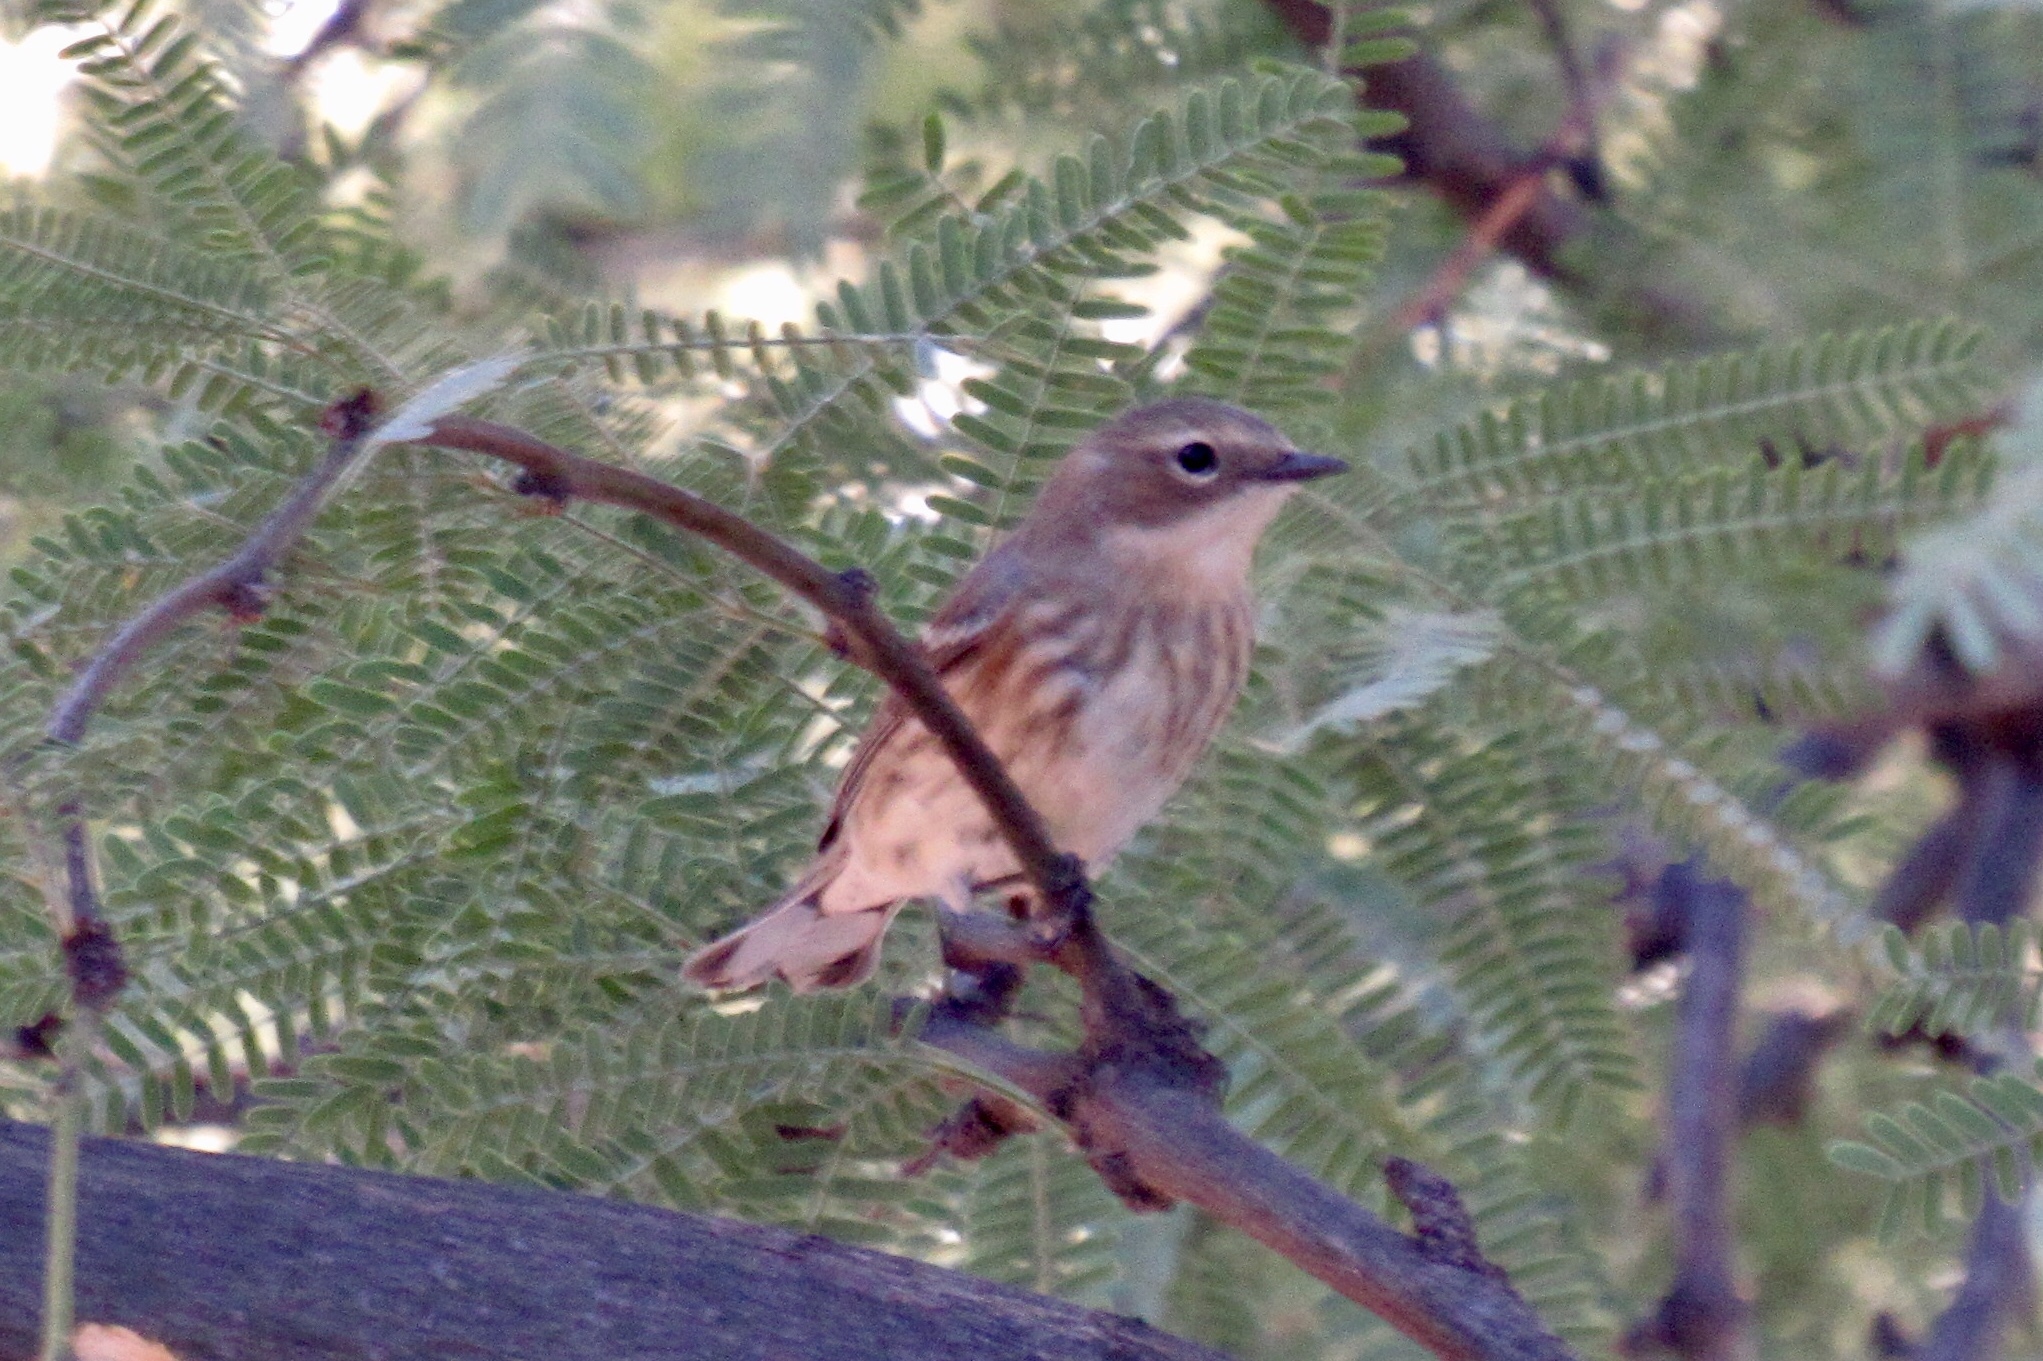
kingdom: Animalia
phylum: Chordata
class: Aves
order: Passeriformes
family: Parulidae
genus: Setophaga
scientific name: Setophaga coronata
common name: Myrtle warbler
